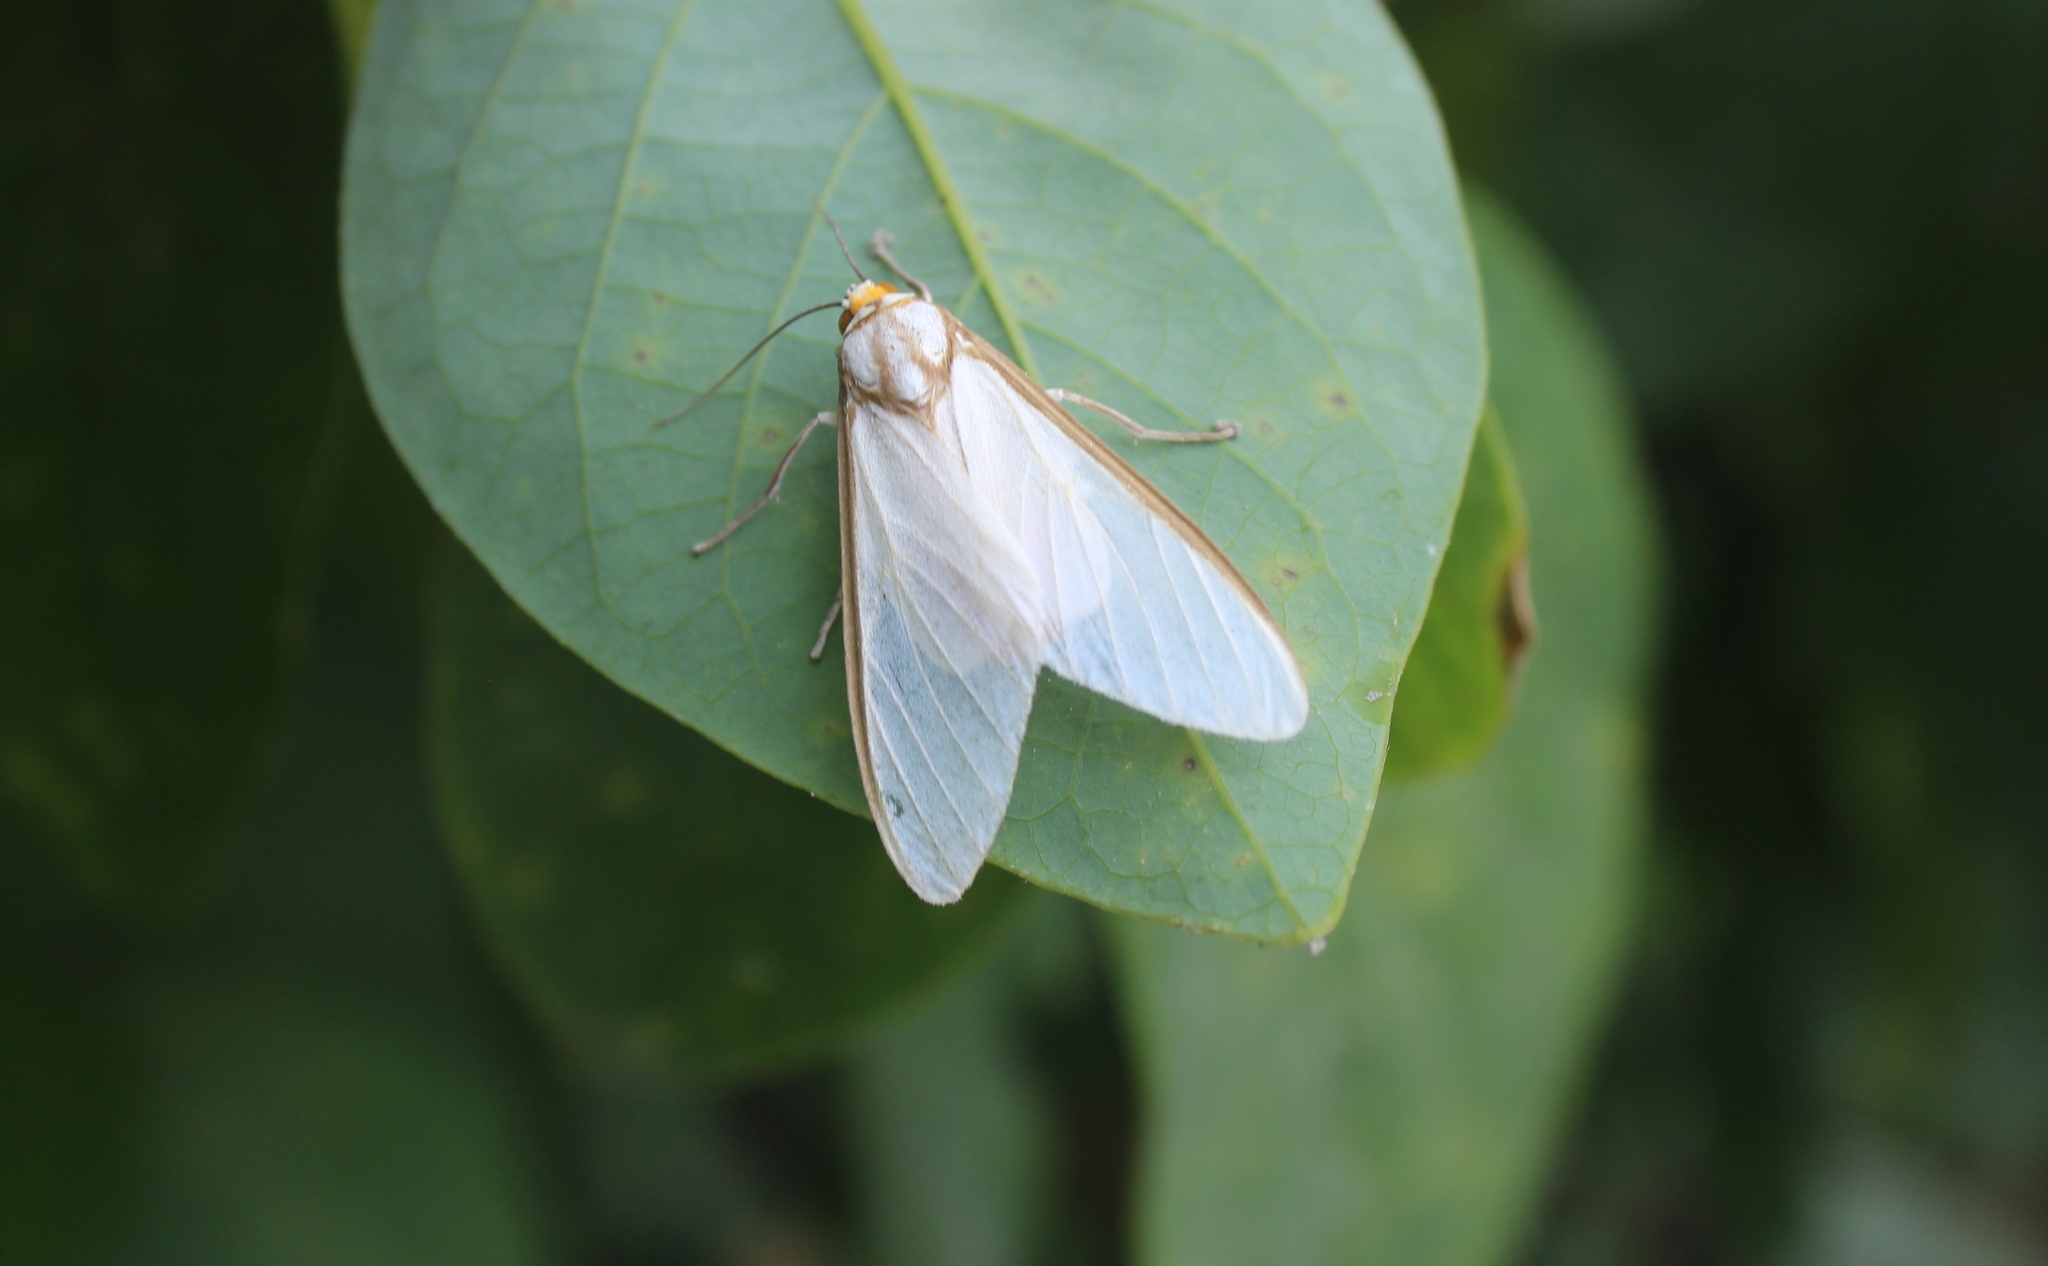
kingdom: Animalia
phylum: Arthropoda
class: Insecta
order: Lepidoptera
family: Erebidae
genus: Robinsonia
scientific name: Robinsonia sabata
